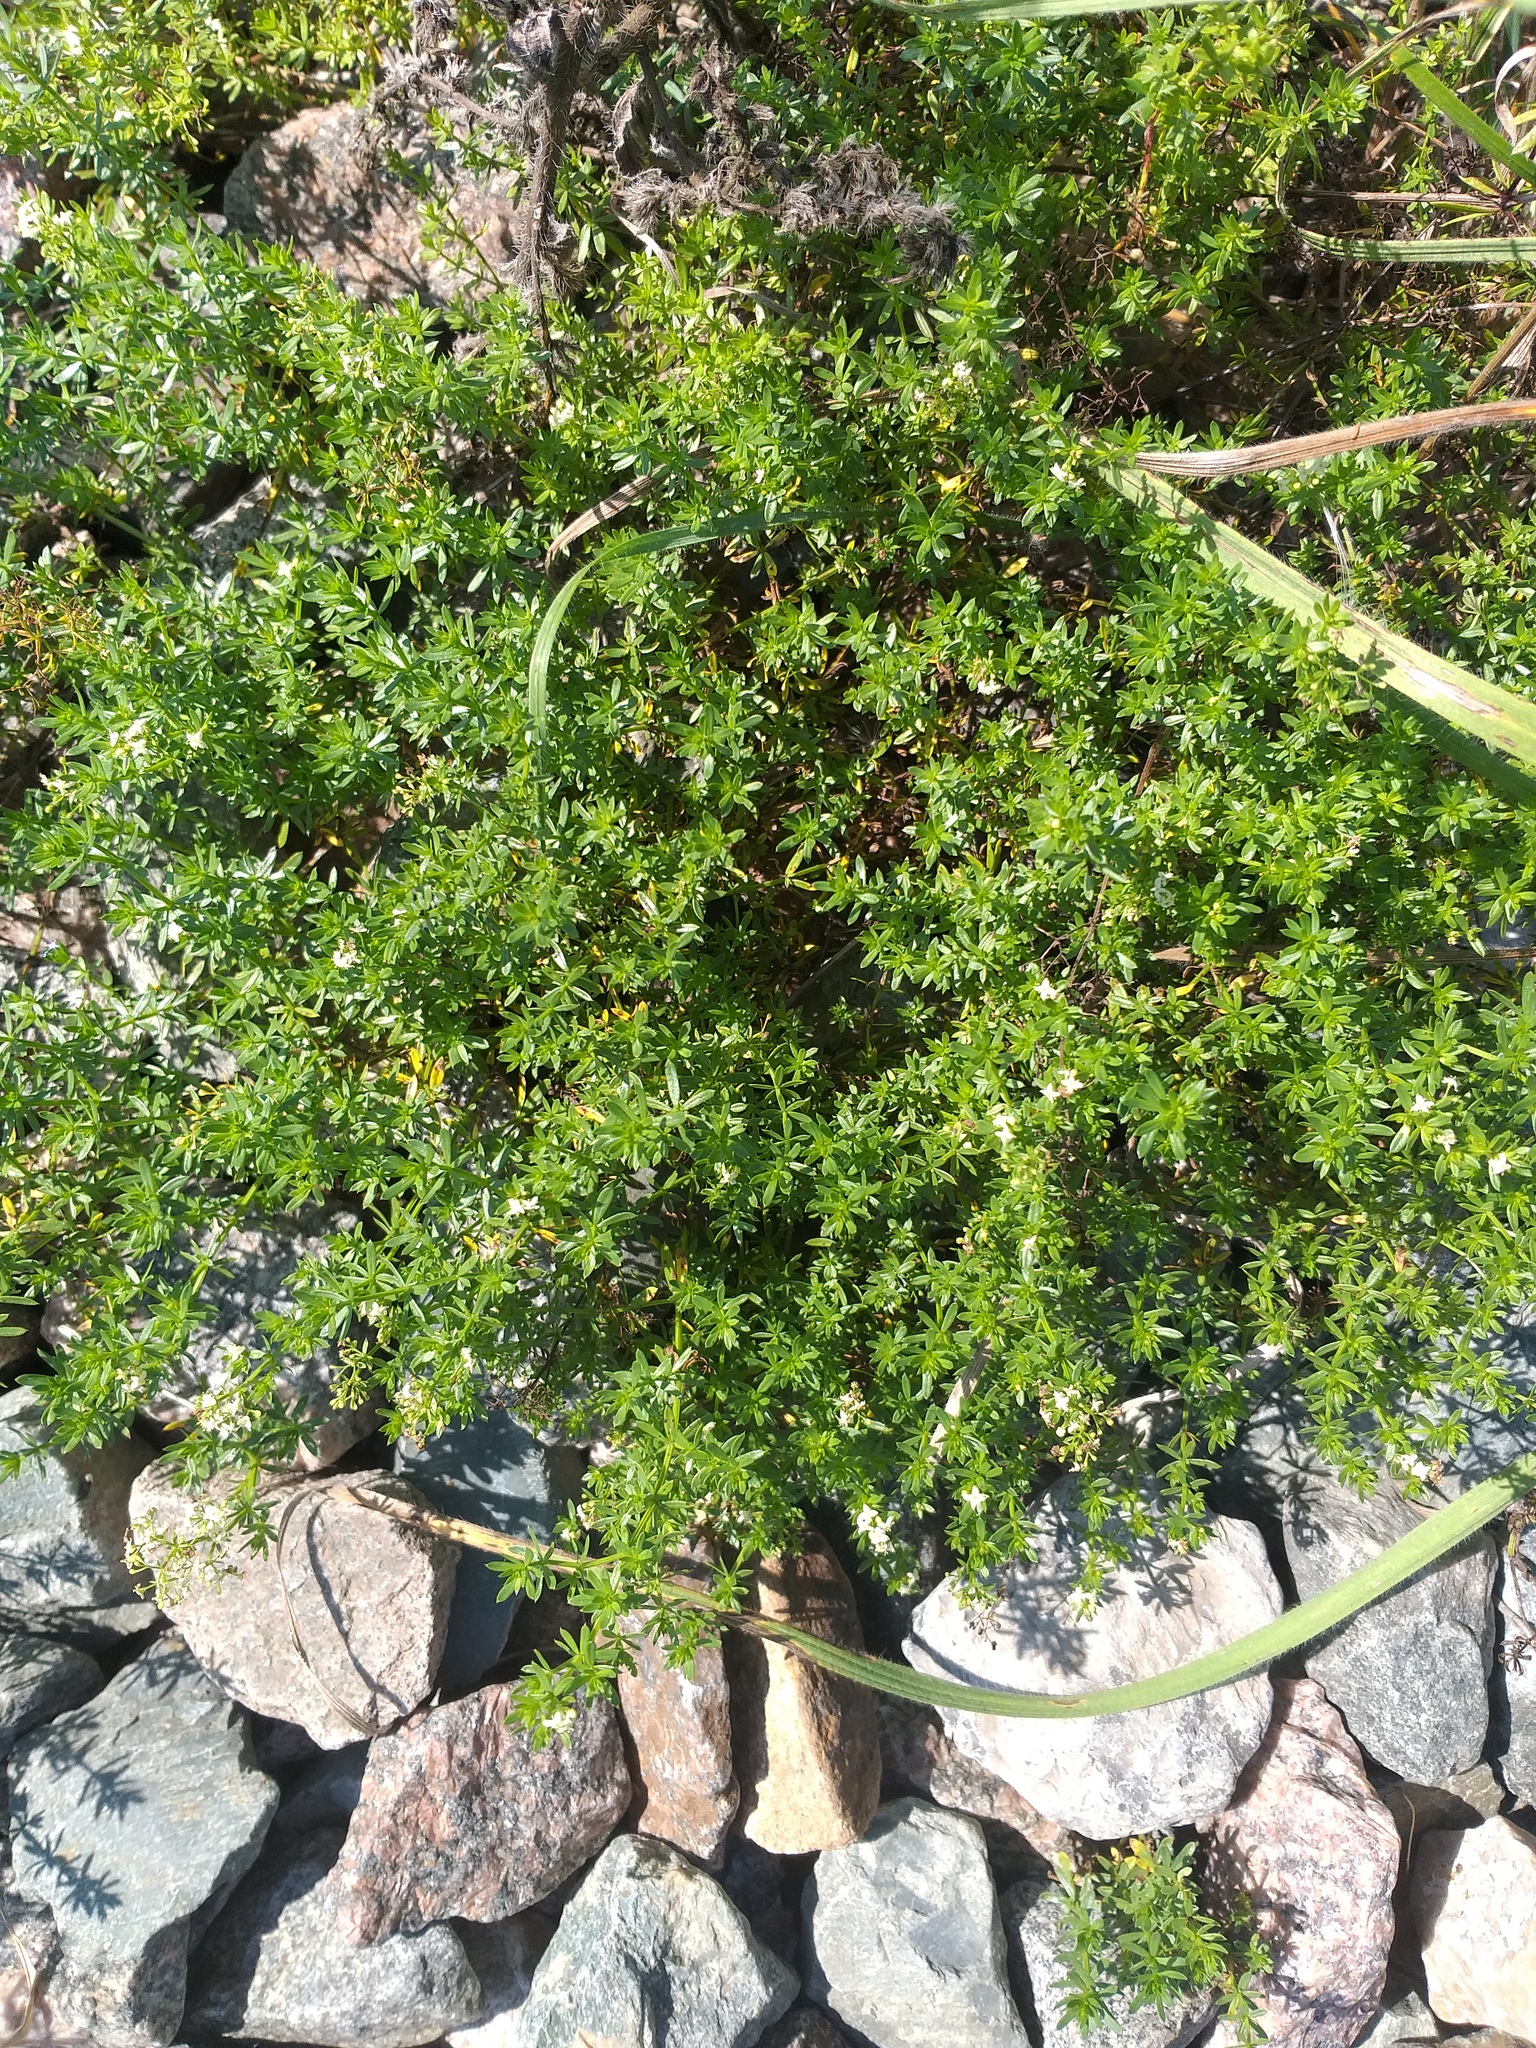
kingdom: Plantae
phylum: Tracheophyta
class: Magnoliopsida
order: Gentianales
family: Rubiaceae
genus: Galium
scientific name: Galium mollugo
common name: Hedge bedstraw
